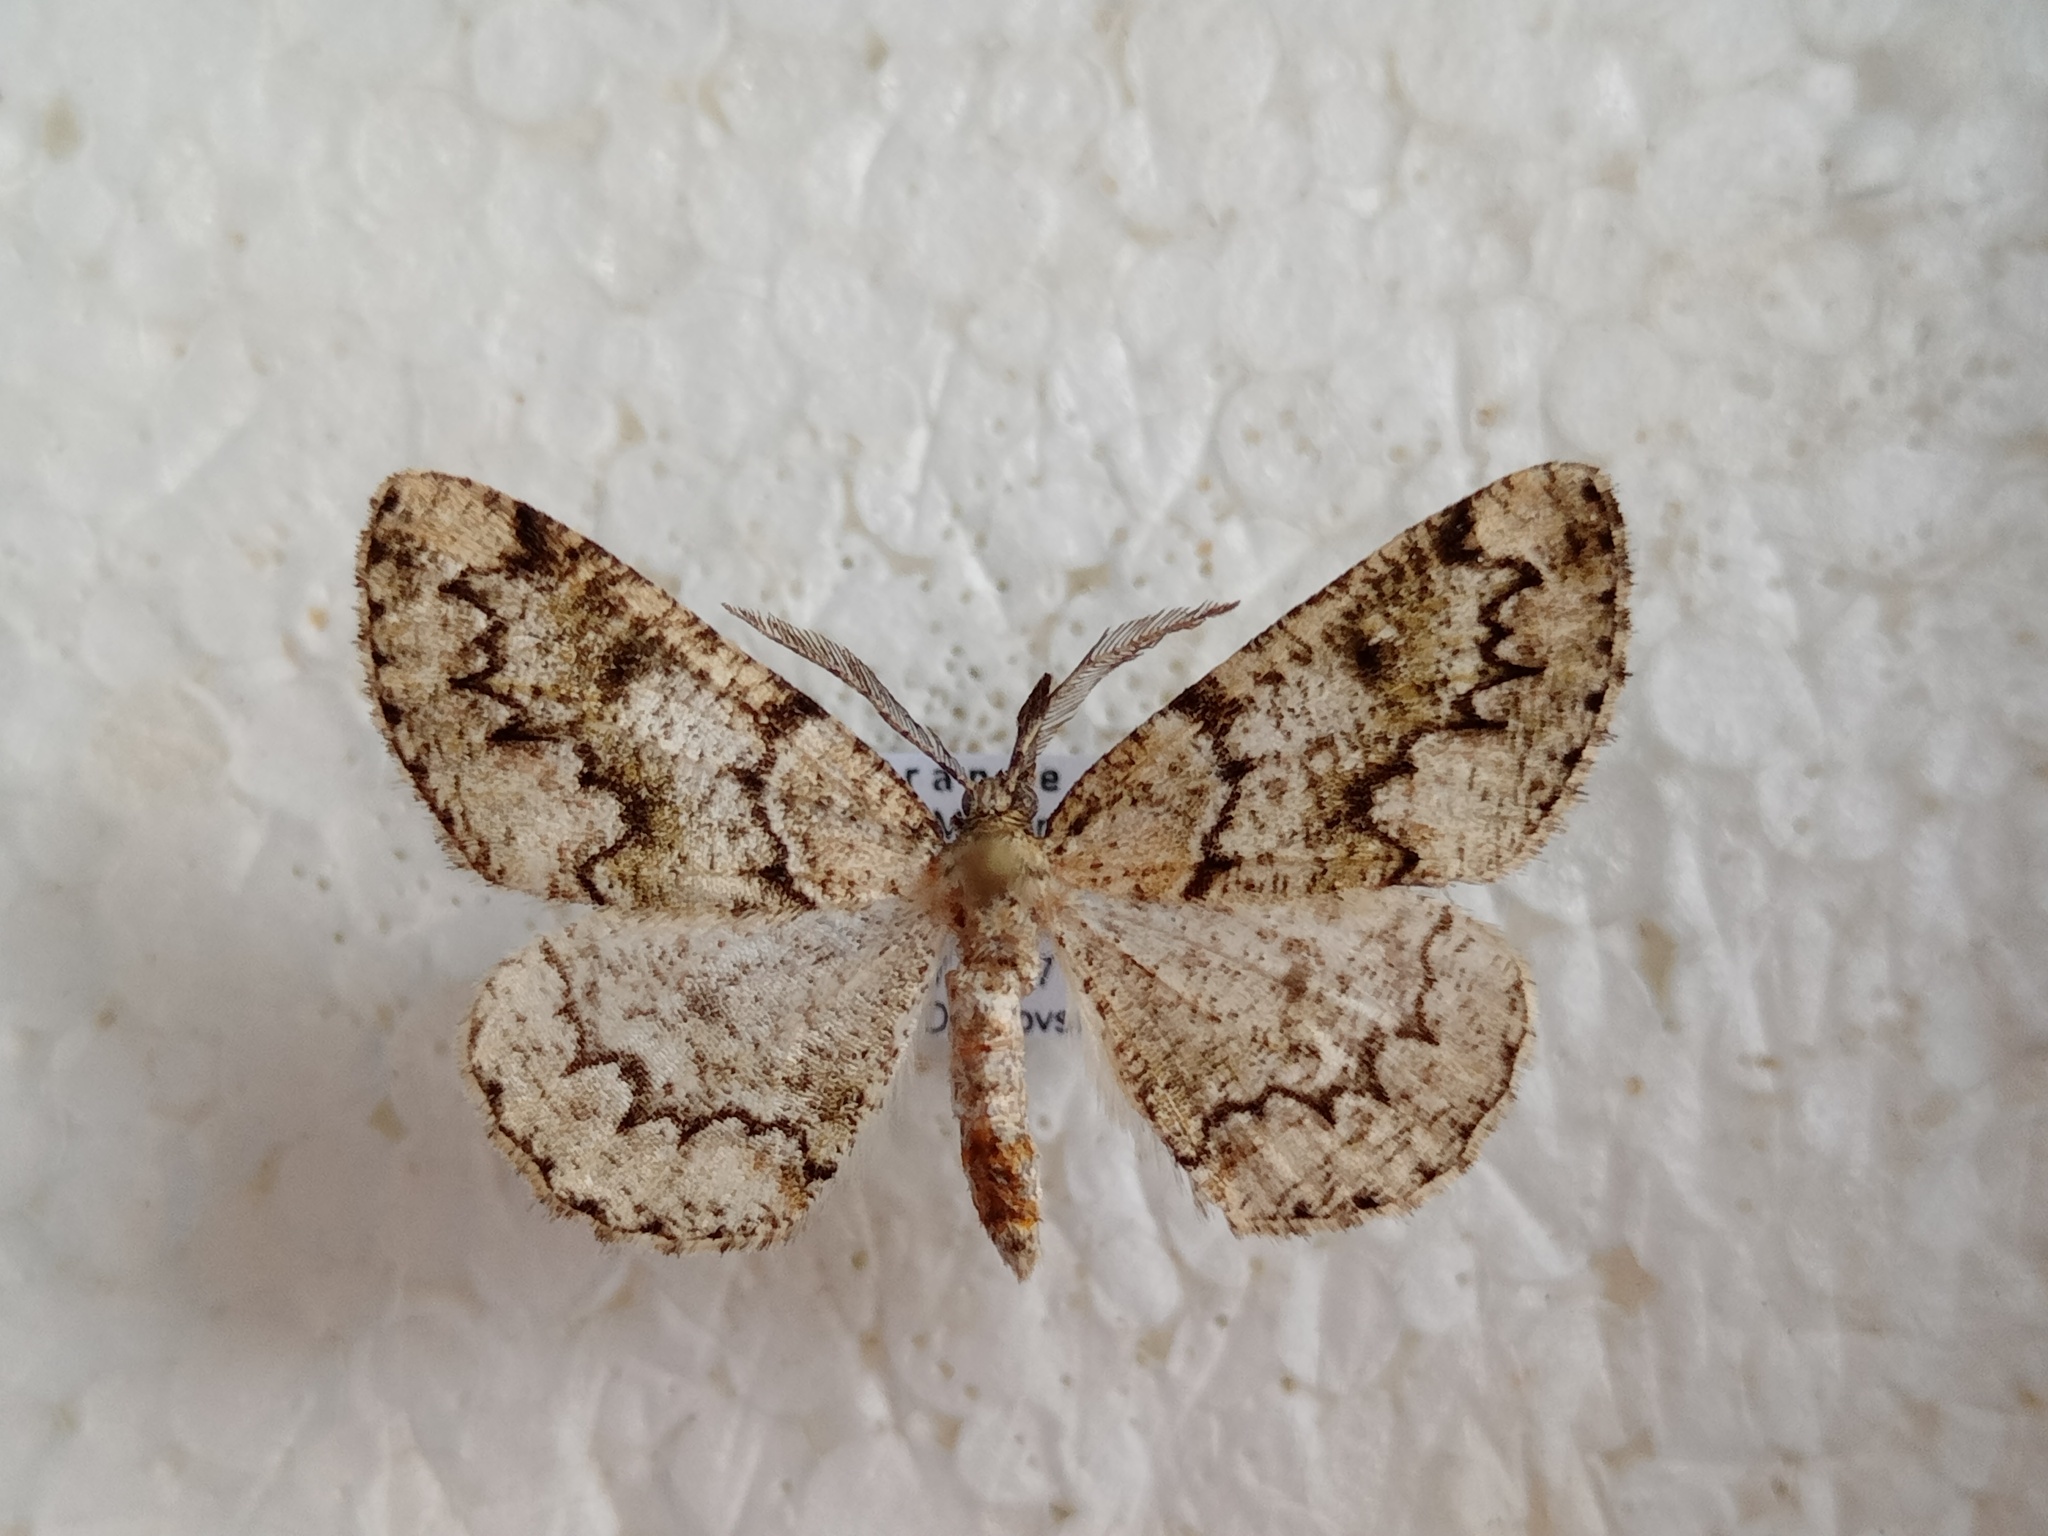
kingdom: Animalia
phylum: Arthropoda
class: Insecta
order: Lepidoptera
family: Geometridae
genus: Cleorodes
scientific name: Cleorodes lichenaria
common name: Brussels lace
